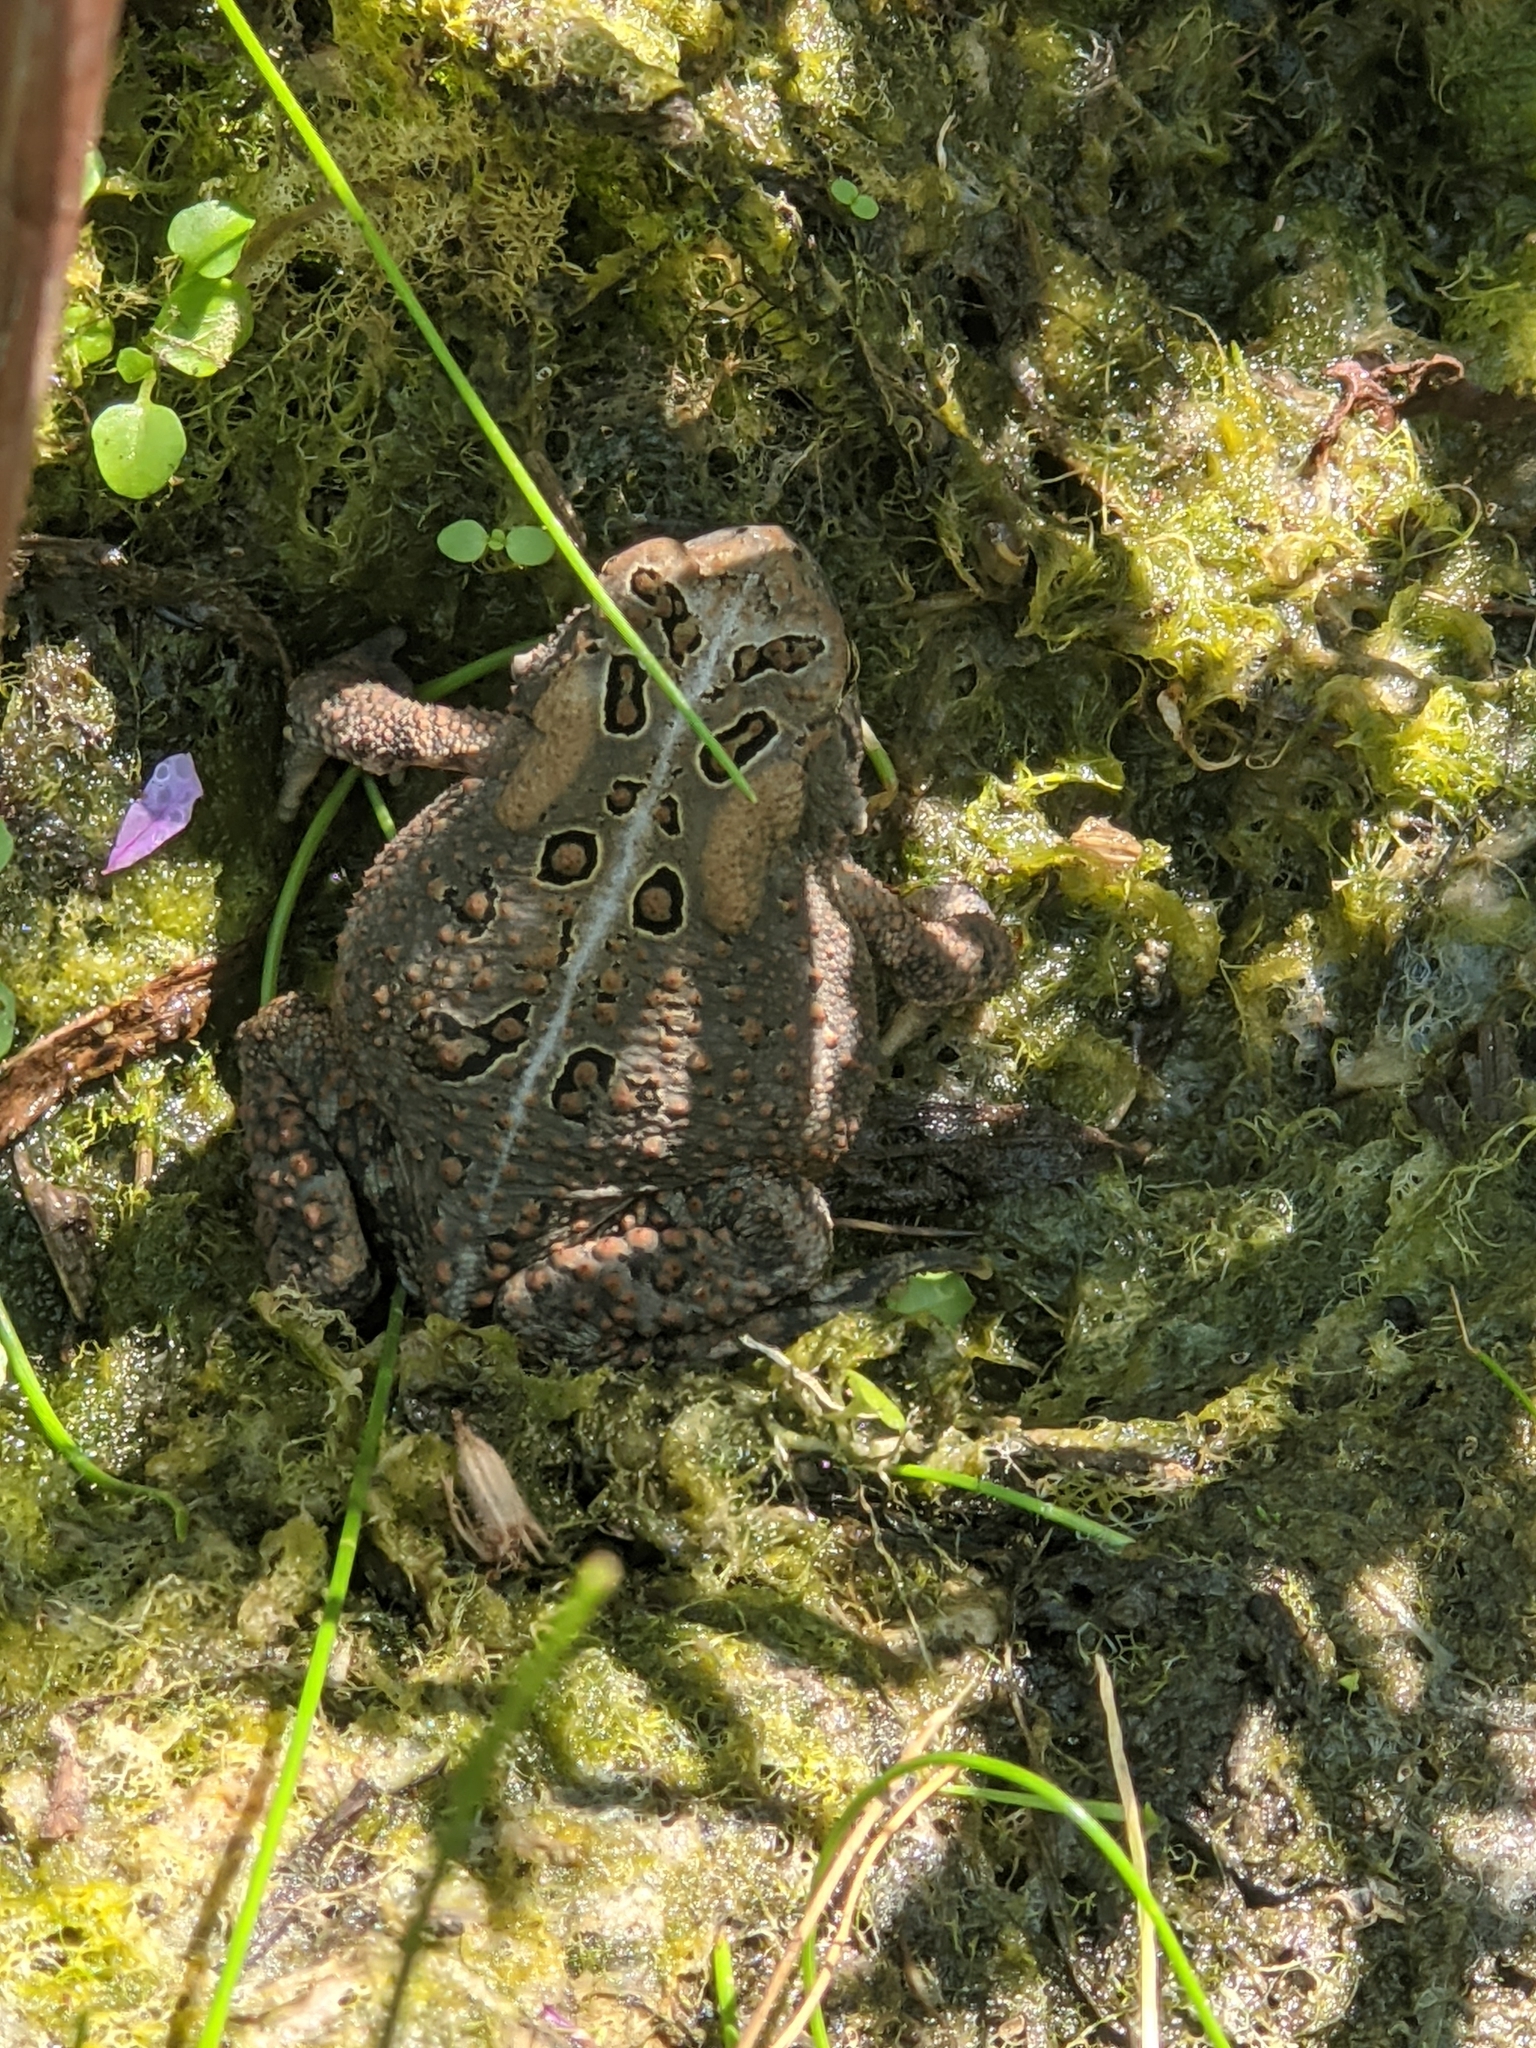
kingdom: Animalia
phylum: Chordata
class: Amphibia
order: Anura
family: Bufonidae
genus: Anaxyrus
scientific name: Anaxyrus americanus
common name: American toad
